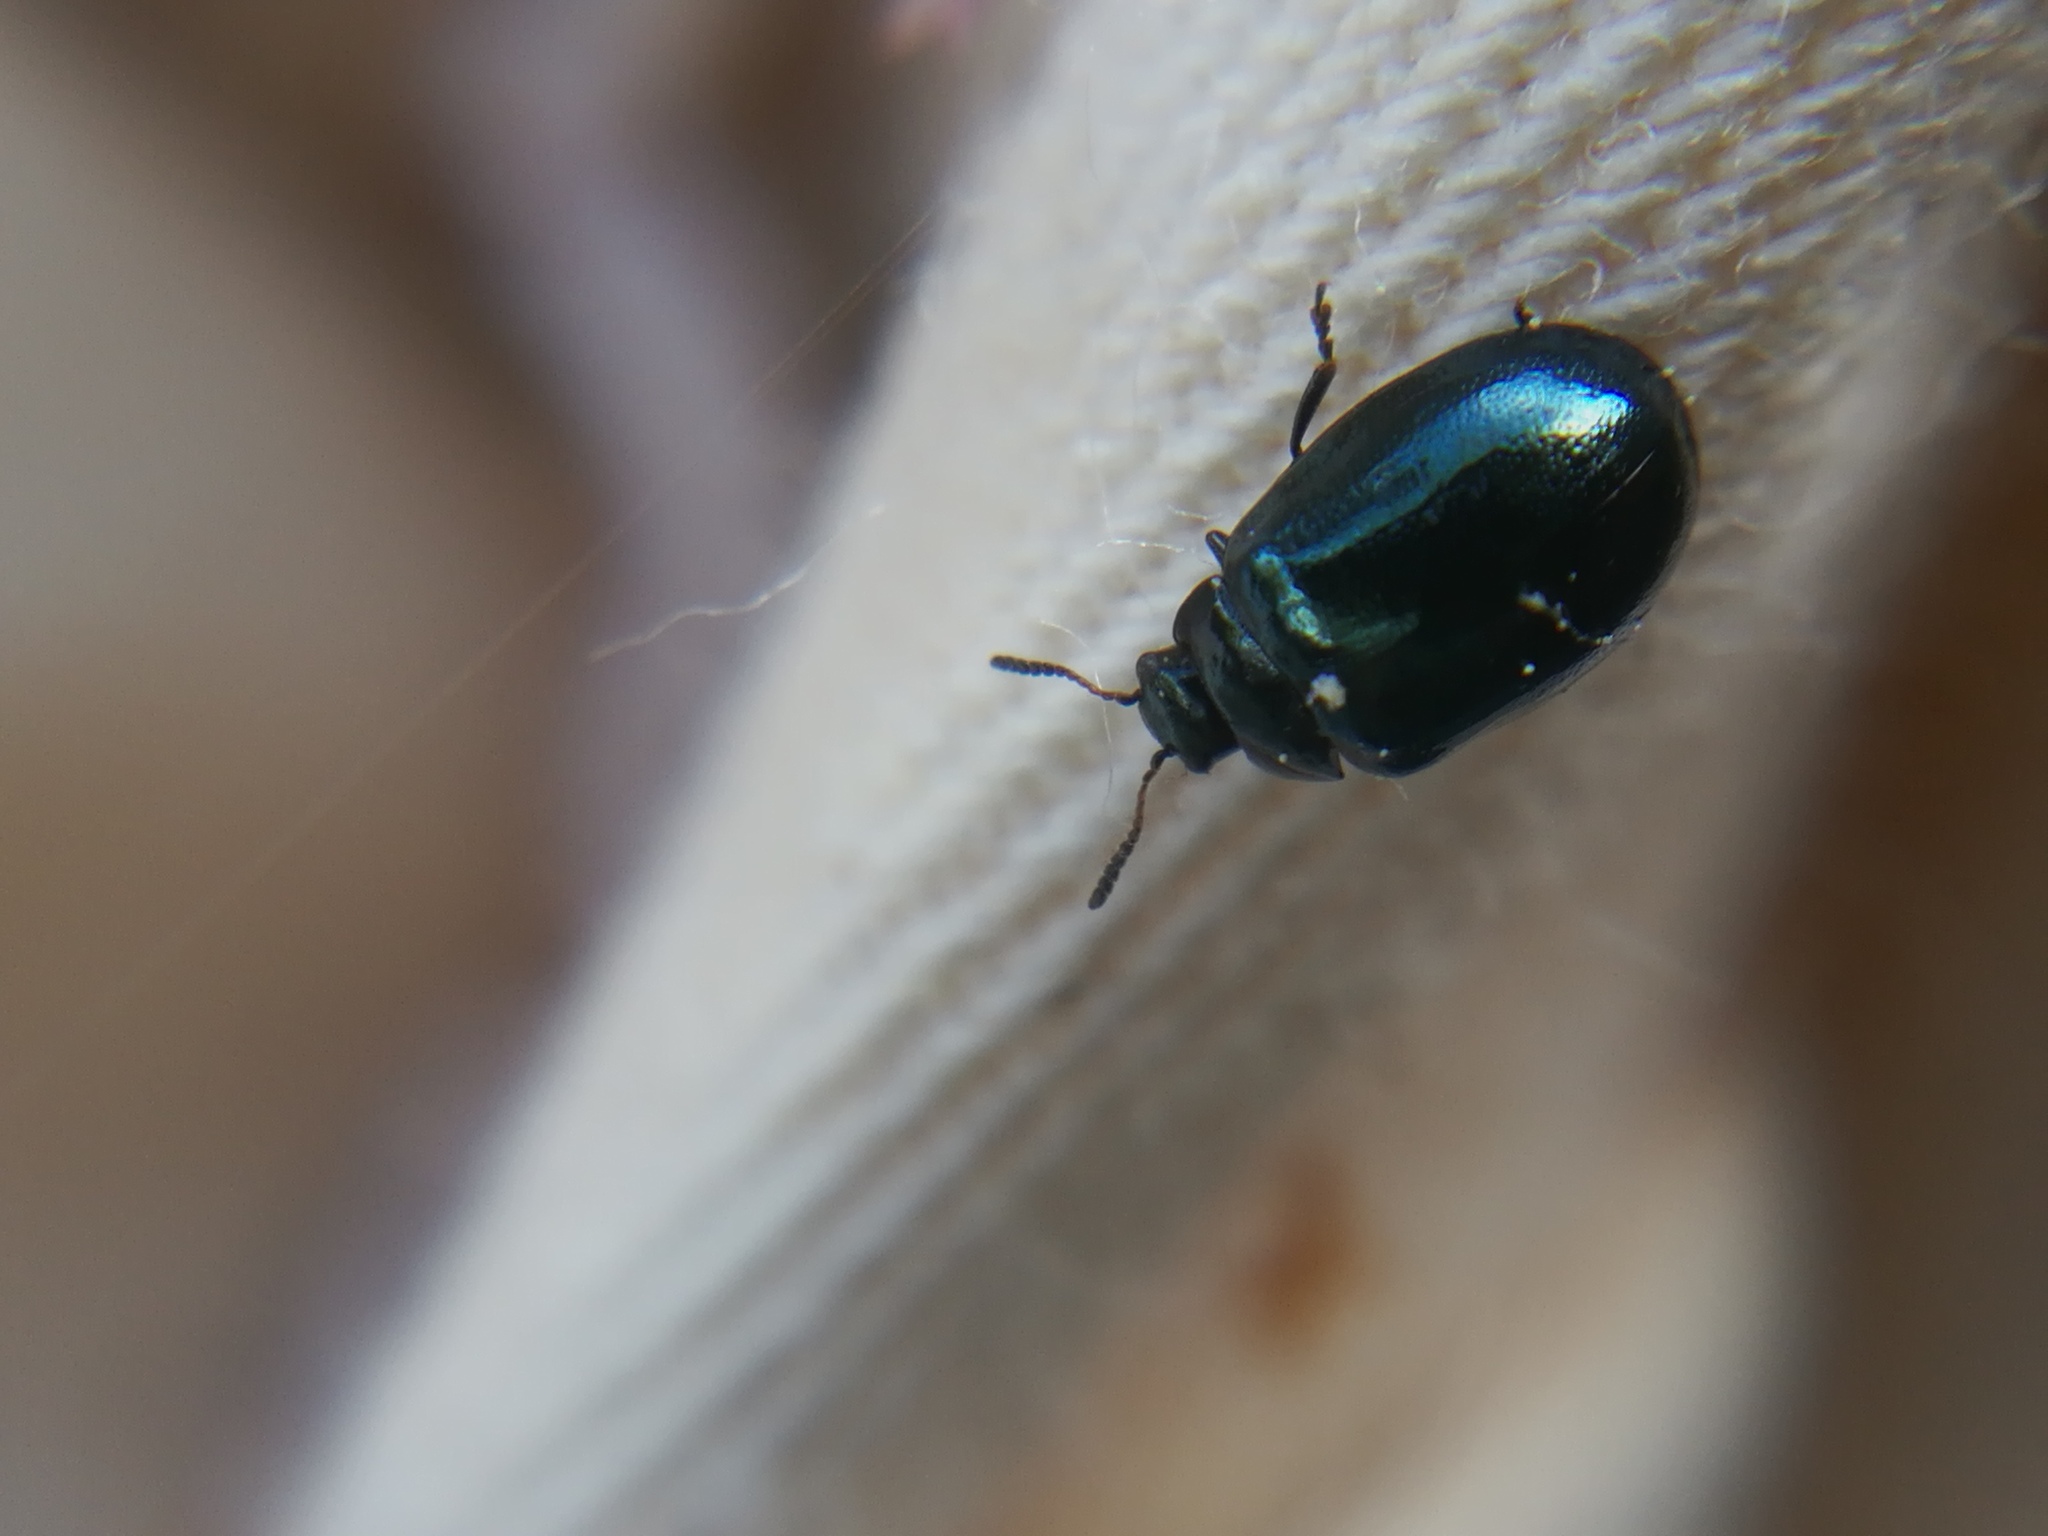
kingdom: Animalia
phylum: Arthropoda
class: Insecta
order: Coleoptera
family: Chrysomelidae
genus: Plagiodera
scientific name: Plagiodera versicolora
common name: Imported willow leaf beetle
